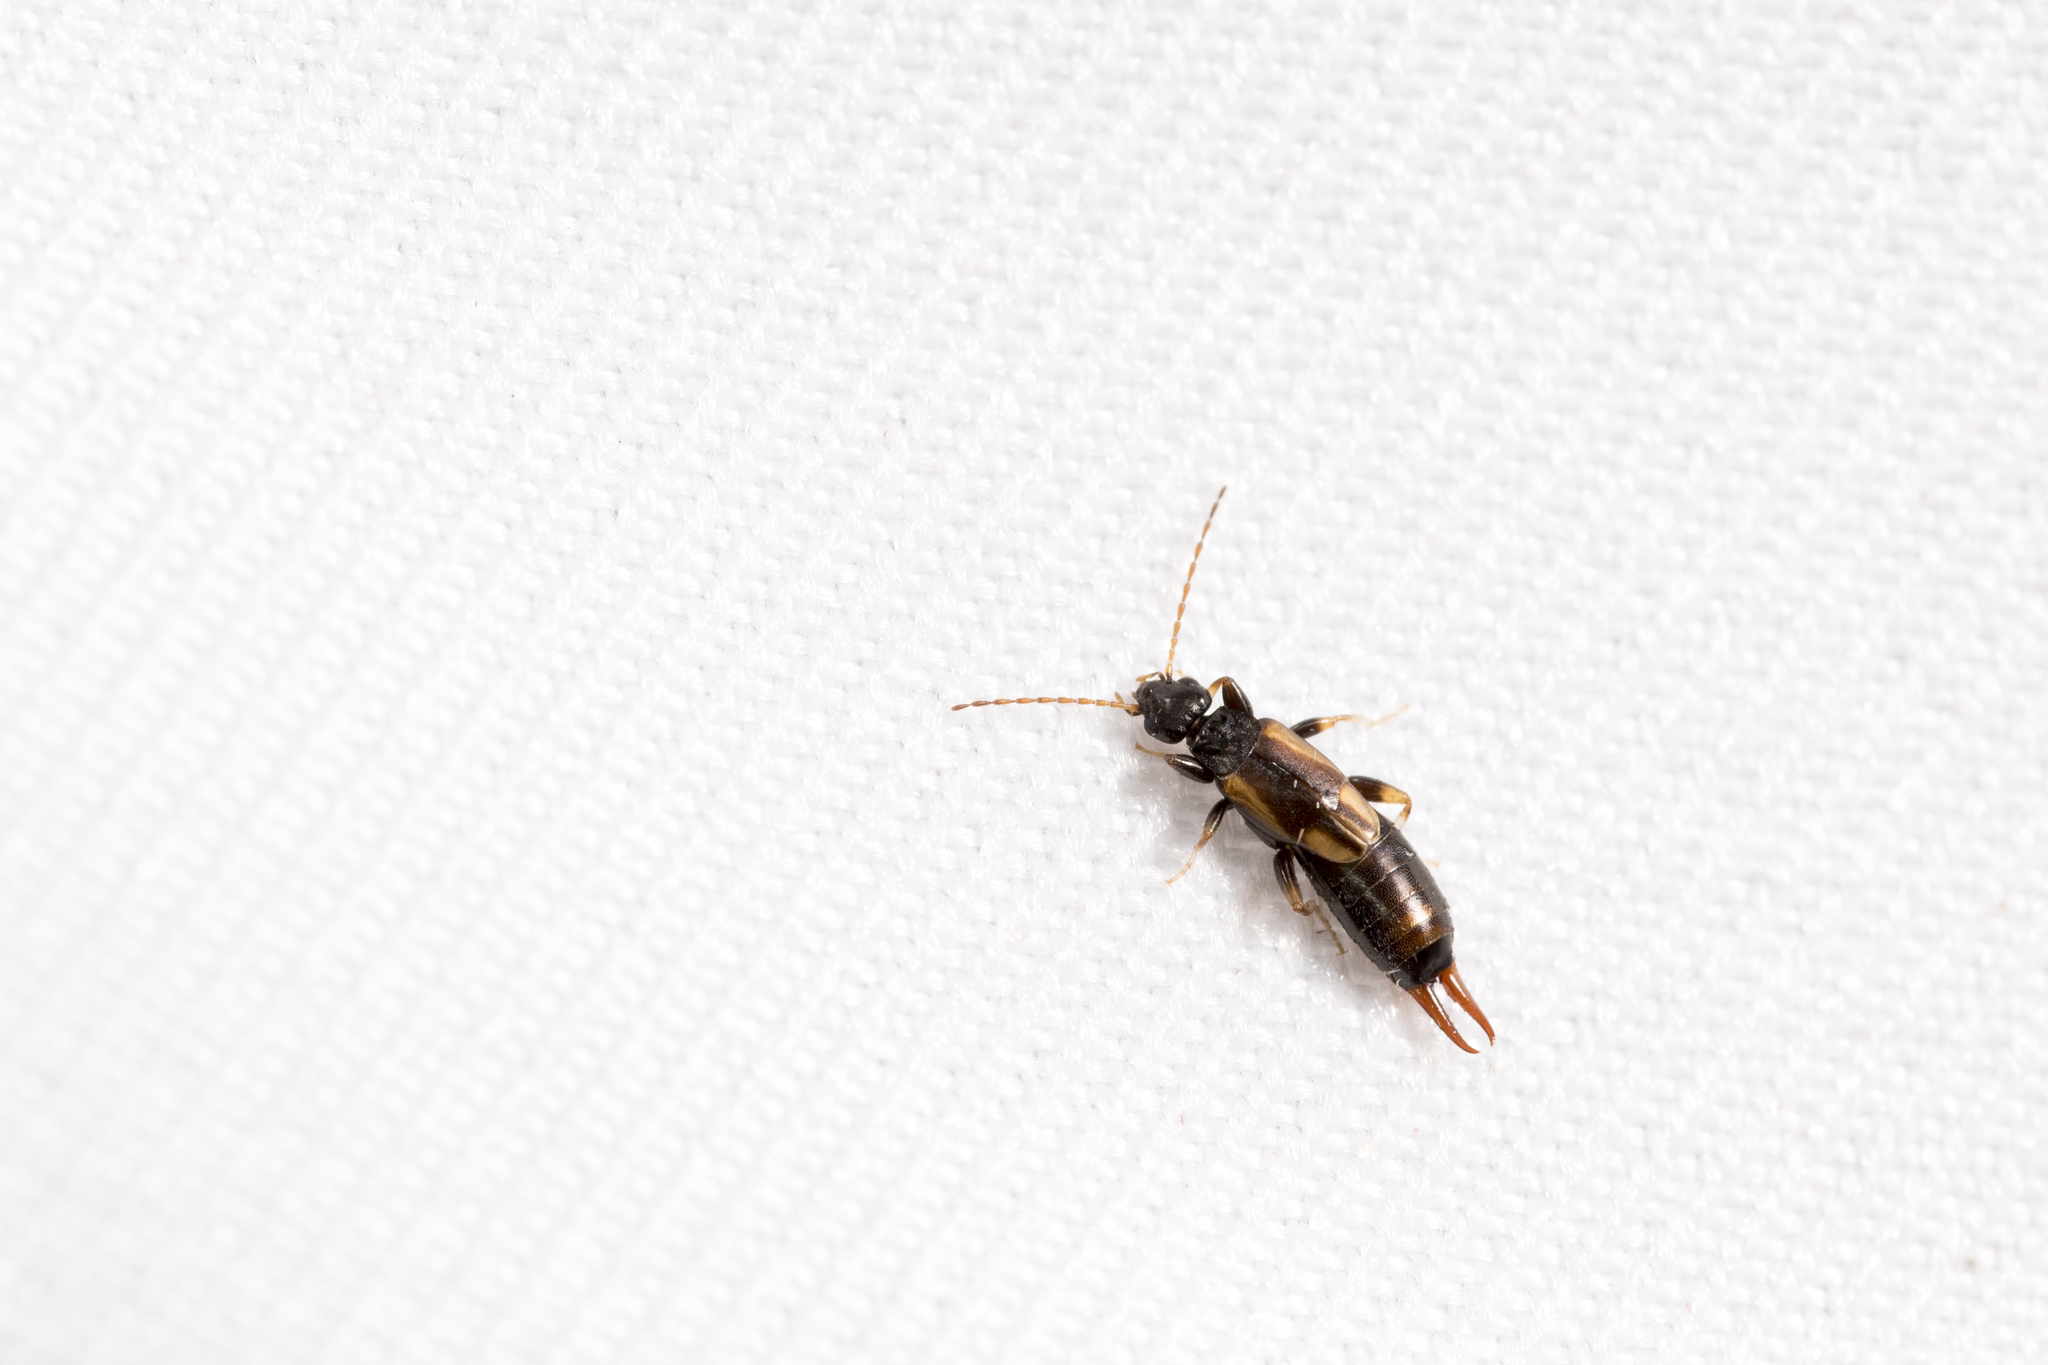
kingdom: Animalia
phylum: Arthropoda
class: Insecta
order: Dermaptera
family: Forficulidae
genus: Forficula
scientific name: Forficula greeni
